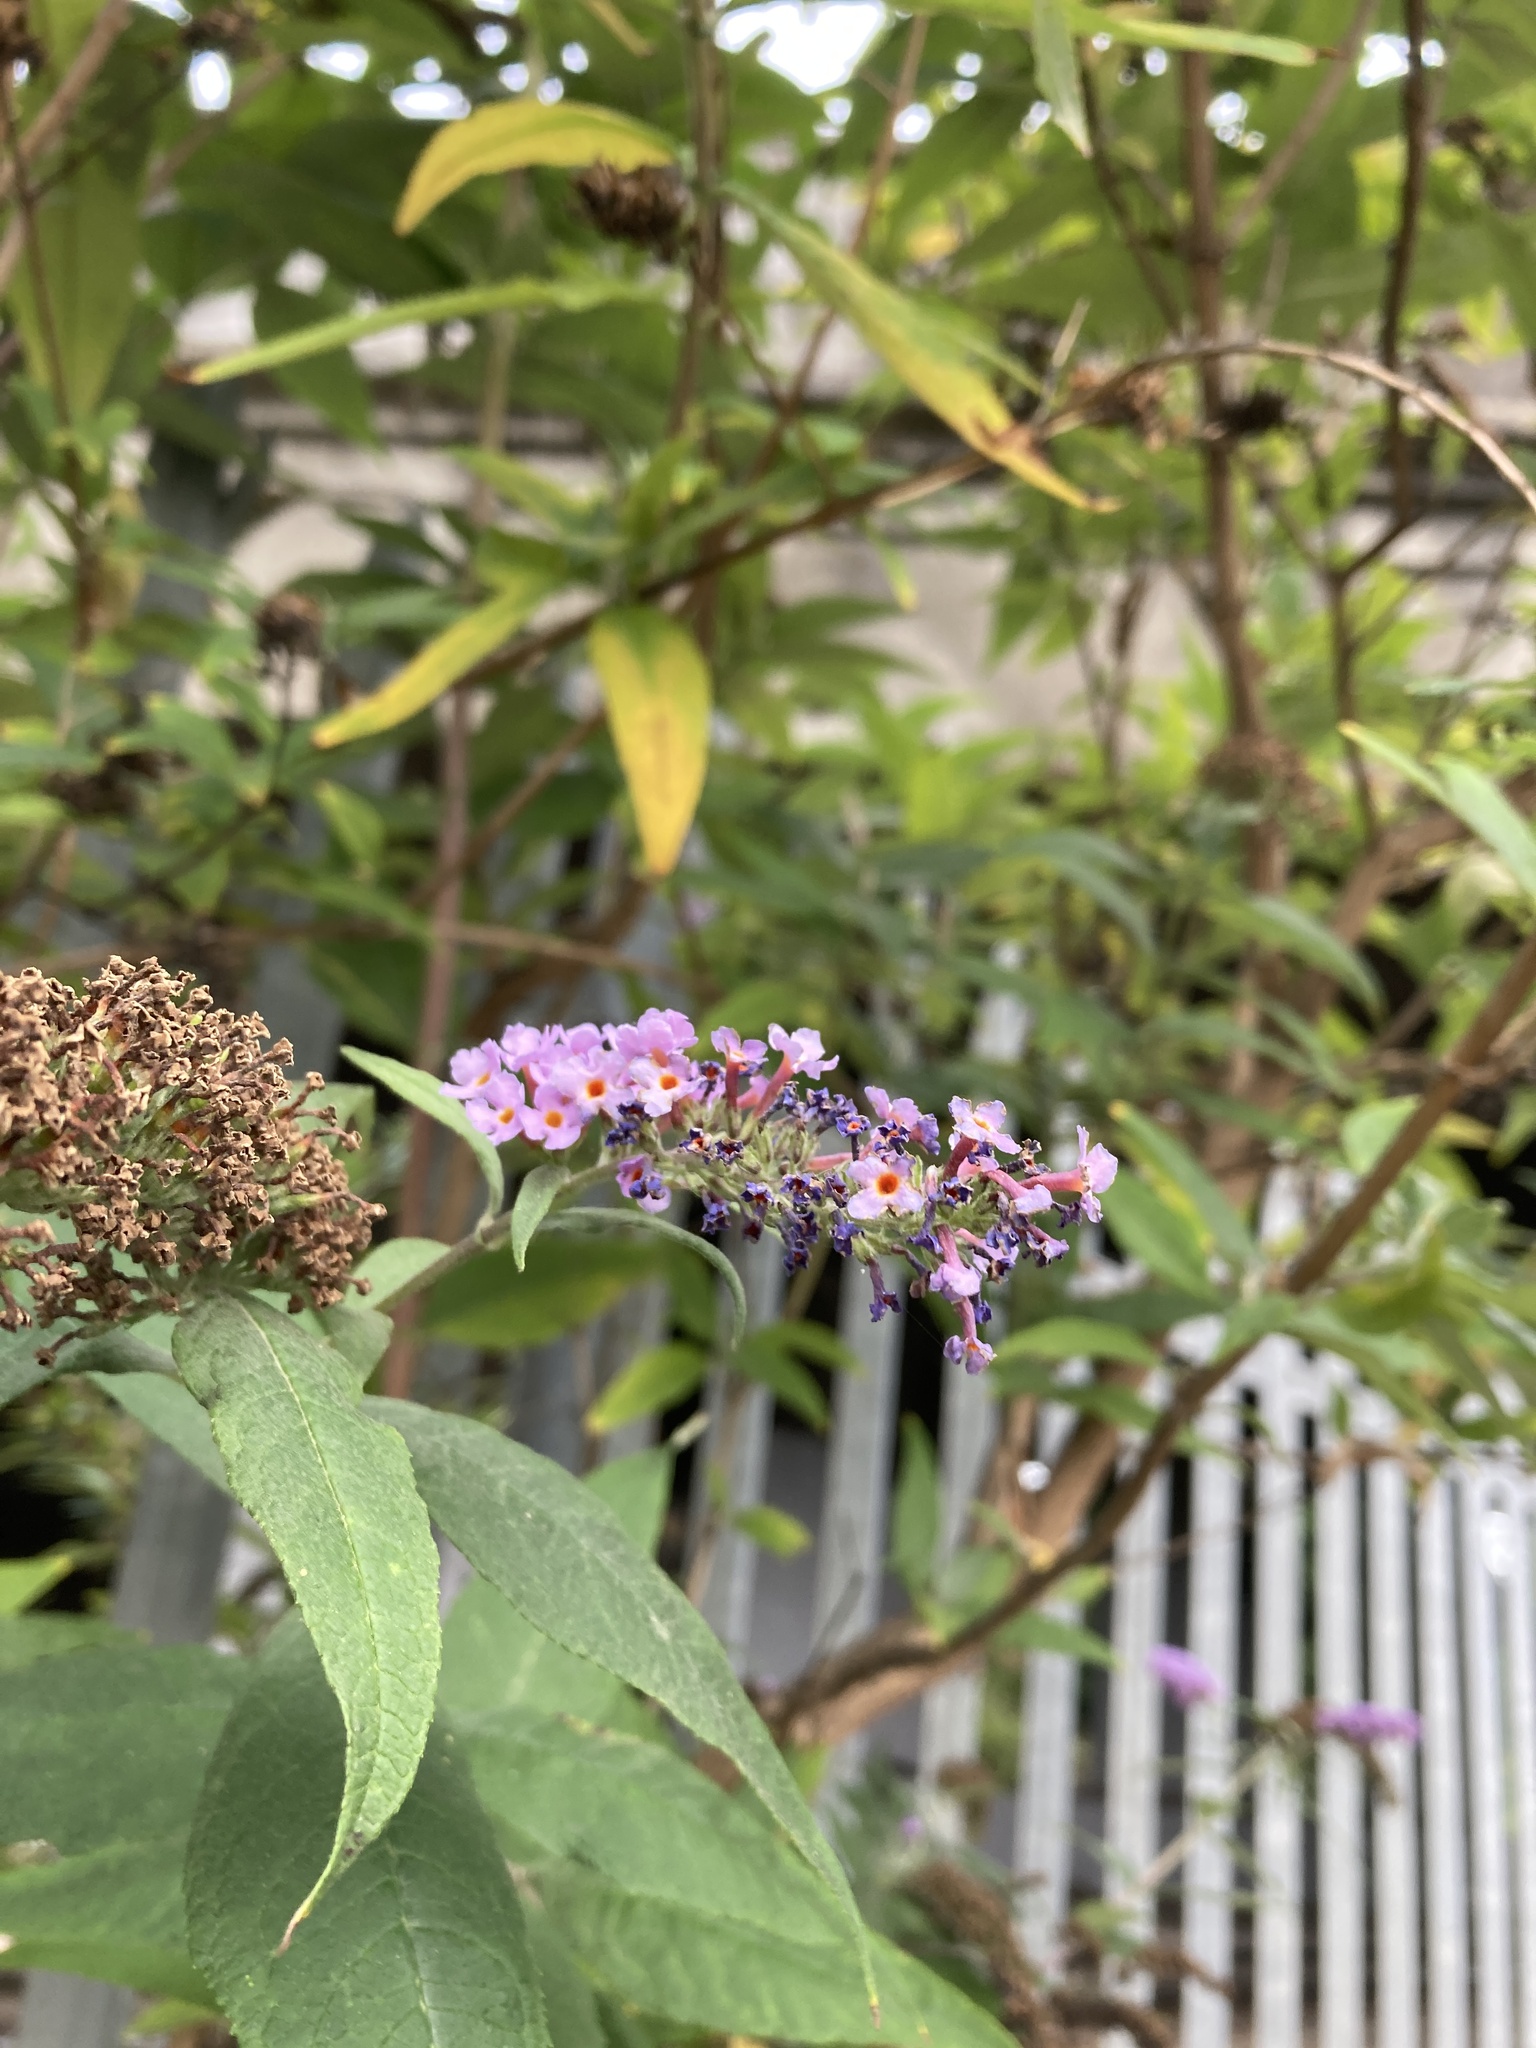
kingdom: Plantae
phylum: Tracheophyta
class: Magnoliopsida
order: Lamiales
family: Scrophulariaceae
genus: Buddleja
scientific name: Buddleja davidii
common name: Butterfly-bush
